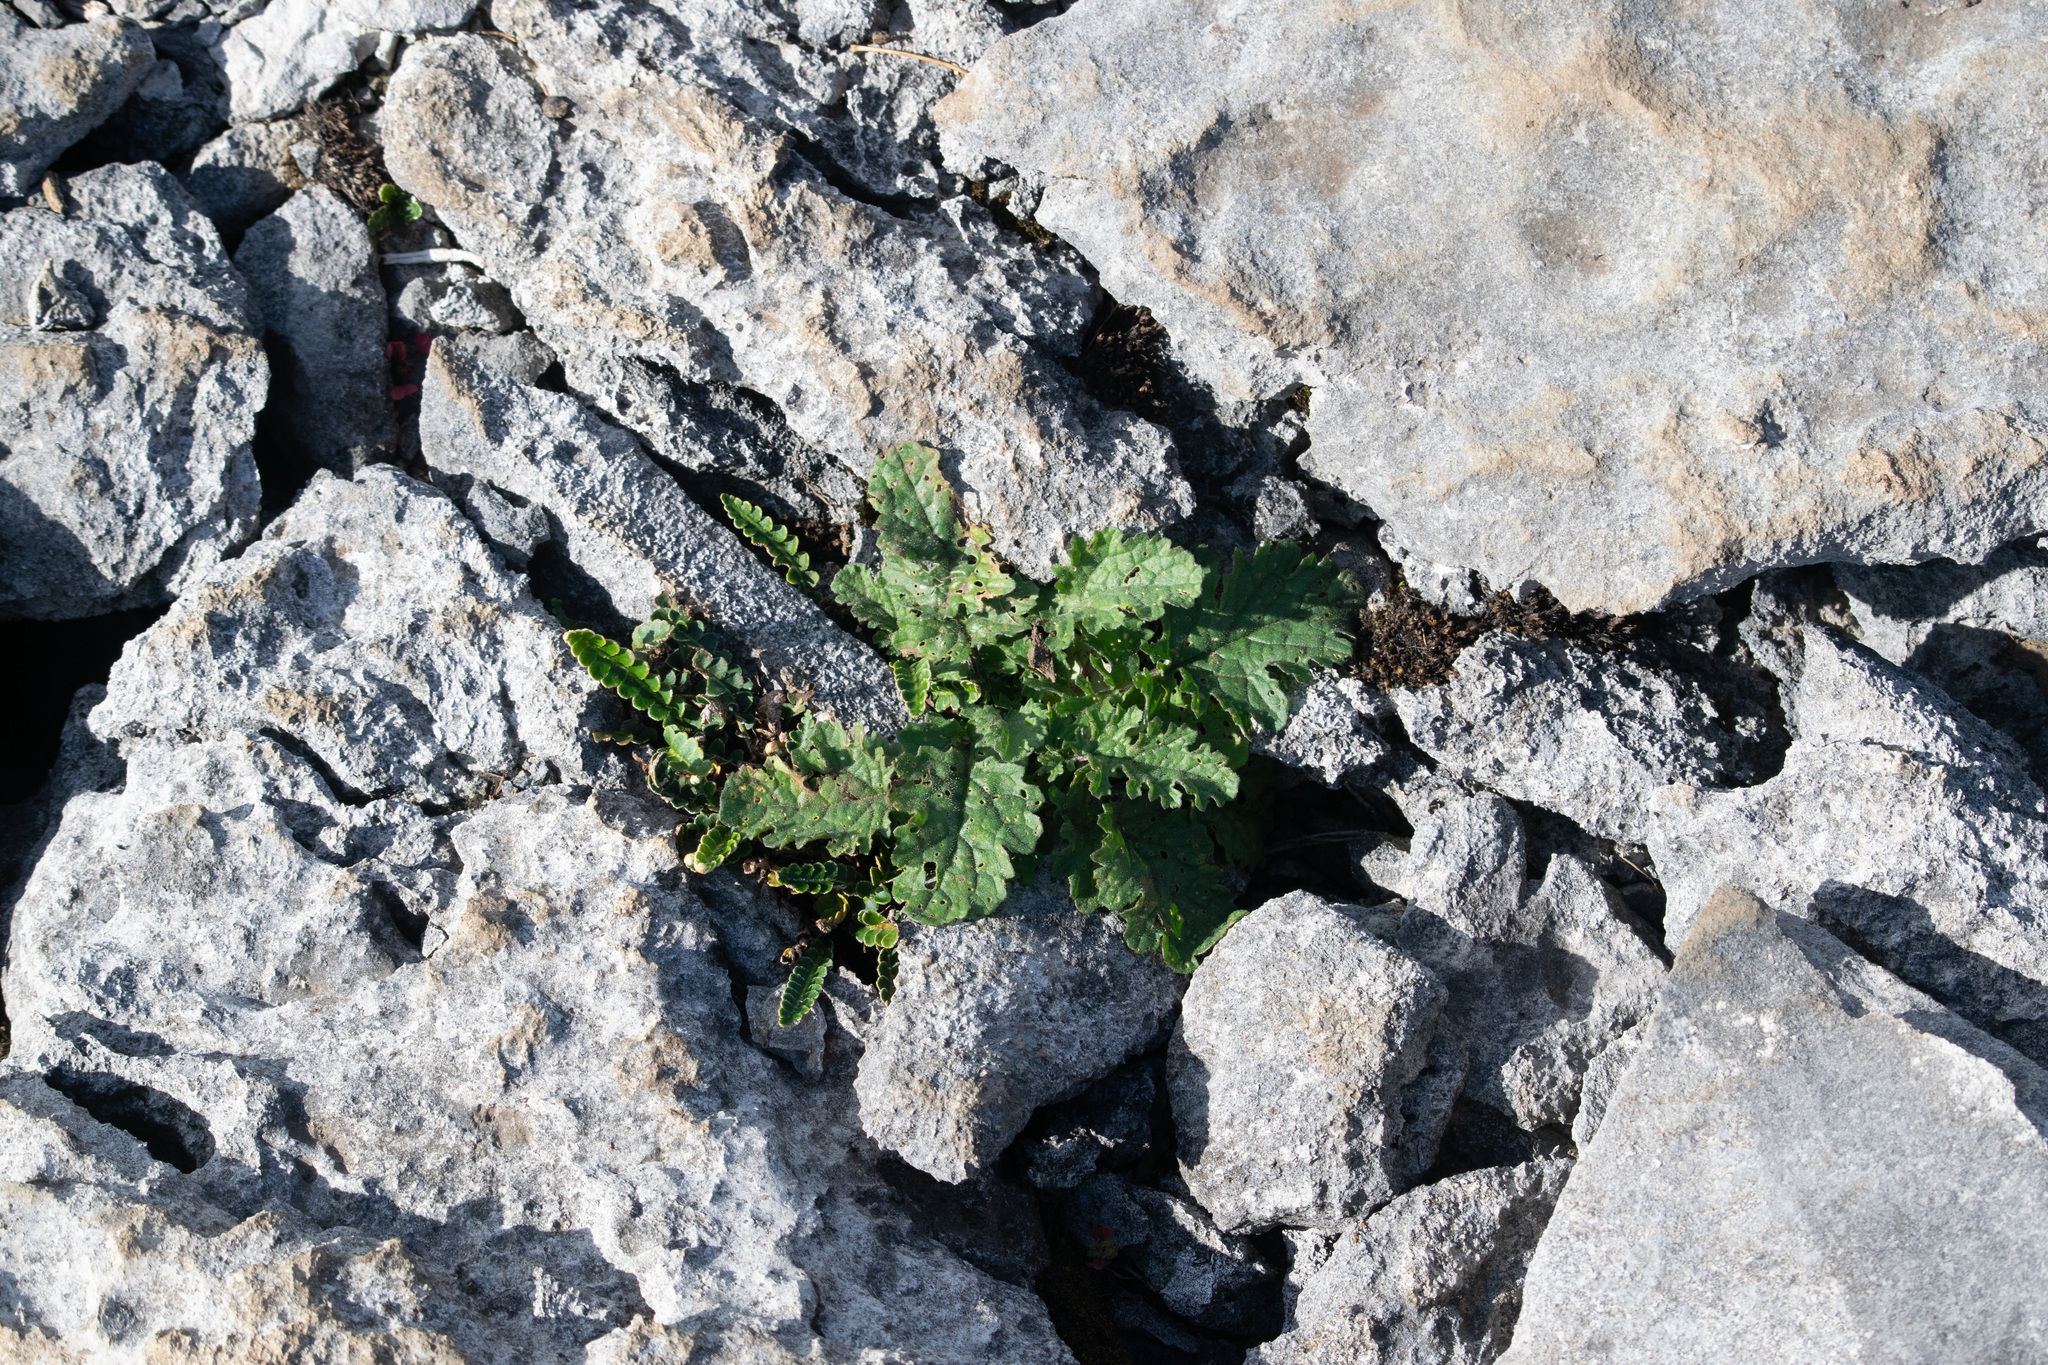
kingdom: Plantae
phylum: Tracheophyta
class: Magnoliopsida
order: Asterales
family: Asteraceae
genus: Jacobaea
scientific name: Jacobaea vulgaris
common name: Stinking willie
